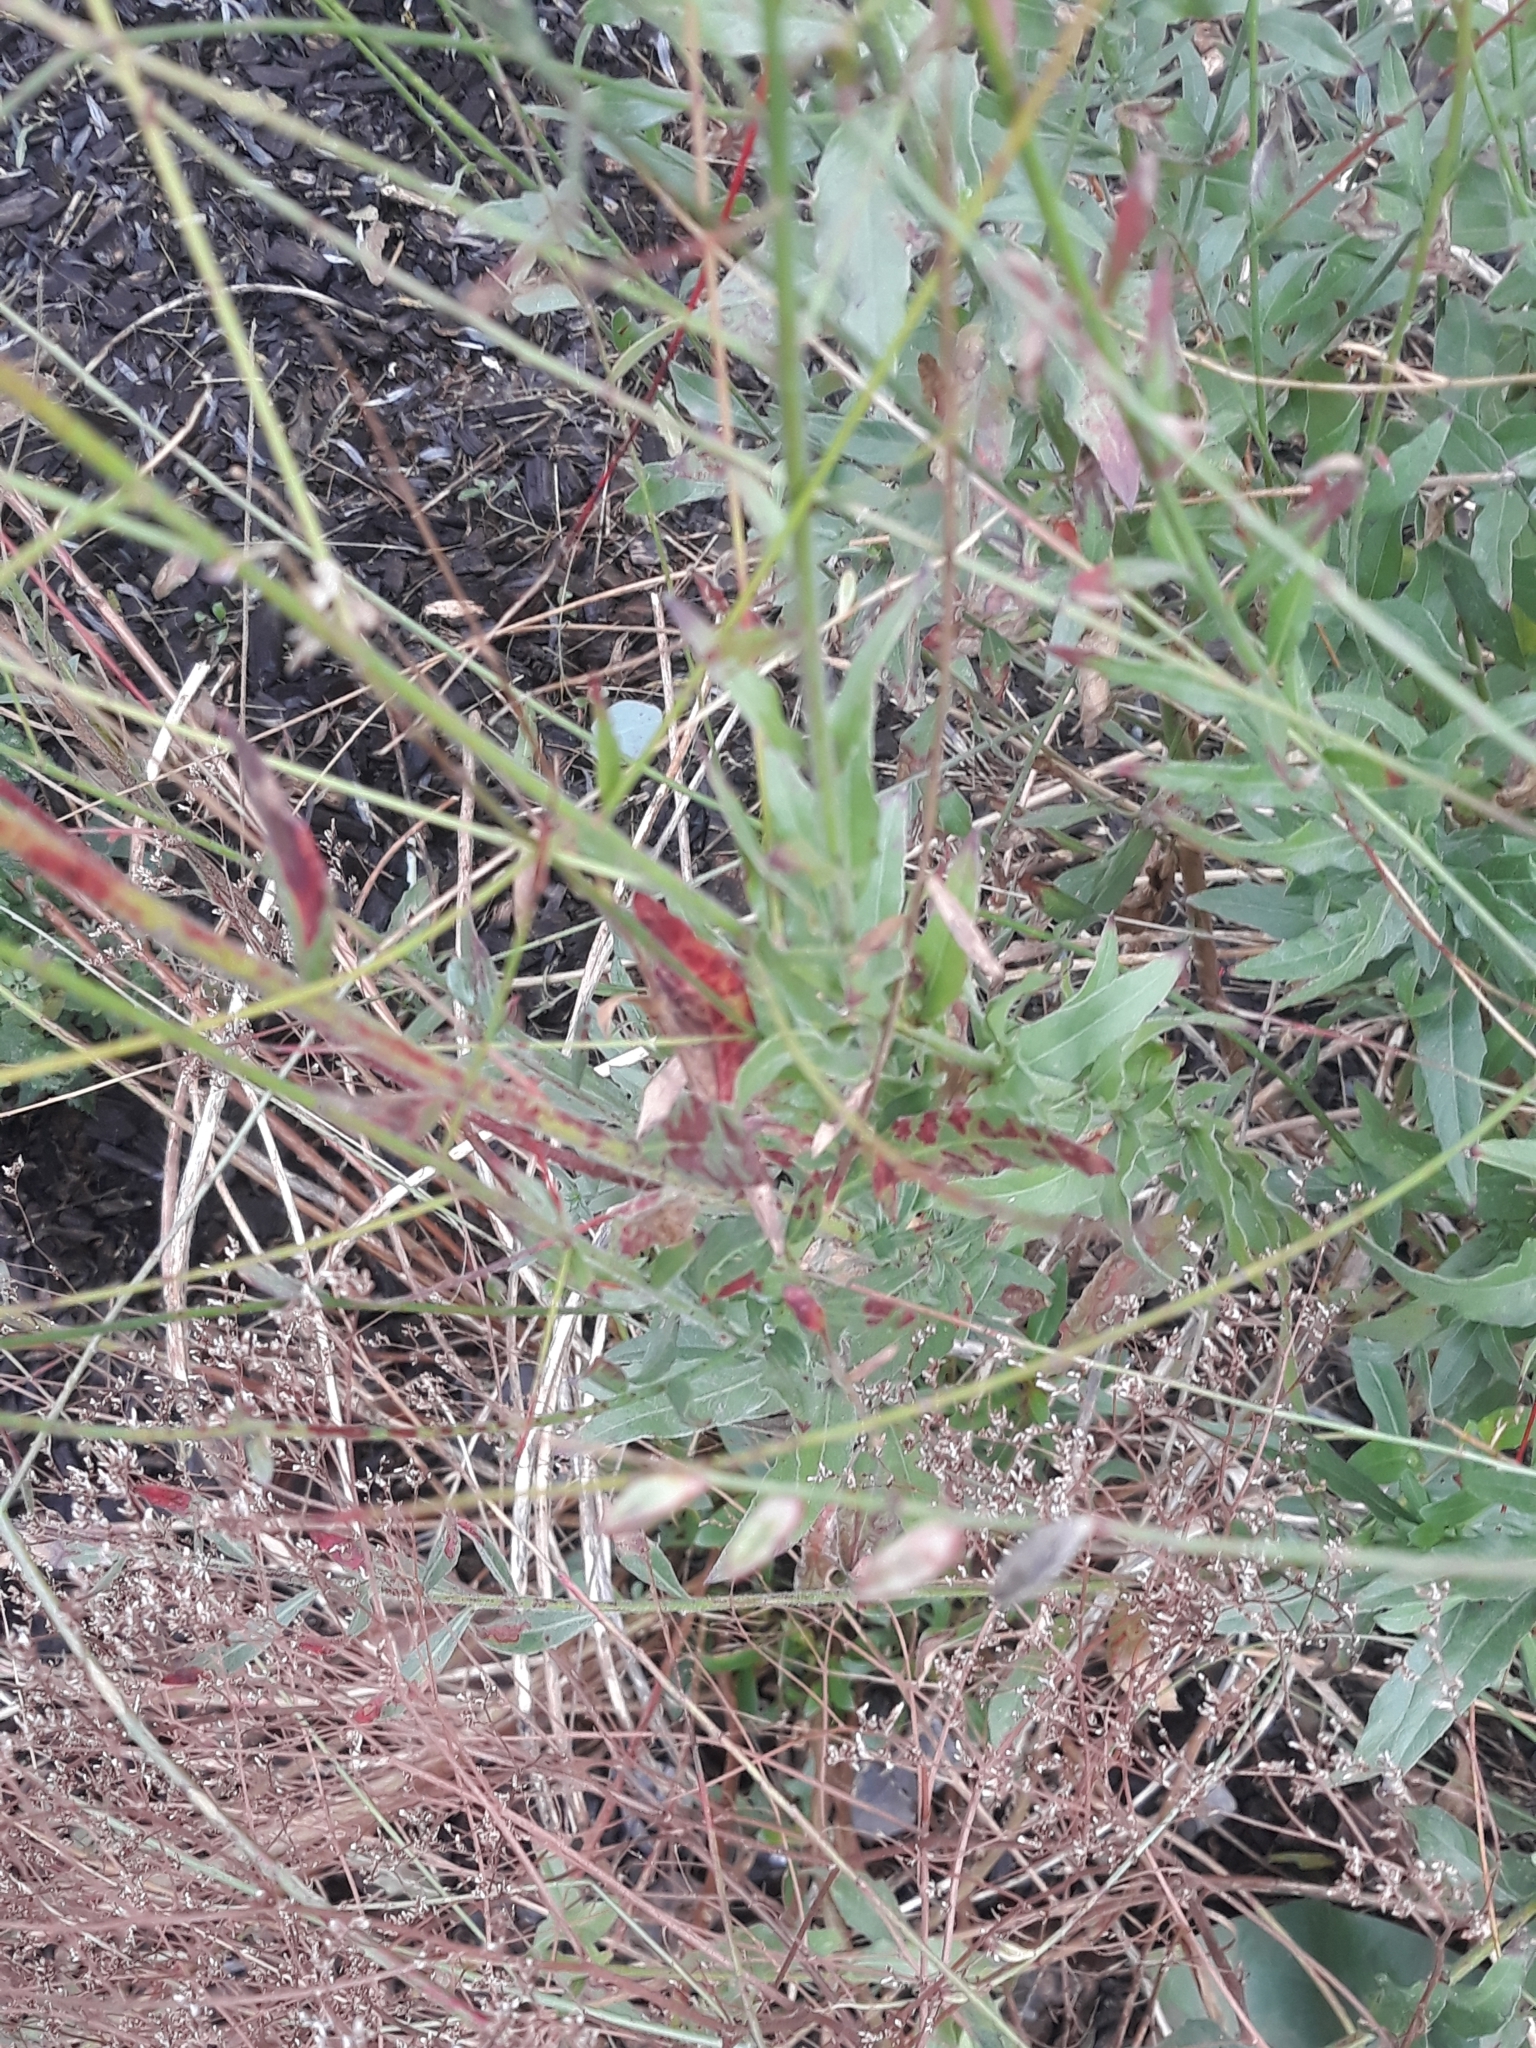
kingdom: Plantae
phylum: Tracheophyta
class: Magnoliopsida
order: Myrtales
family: Onagraceae
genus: Oenothera
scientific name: Oenothera lindheimeri
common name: Lindheimer's beeblossom
